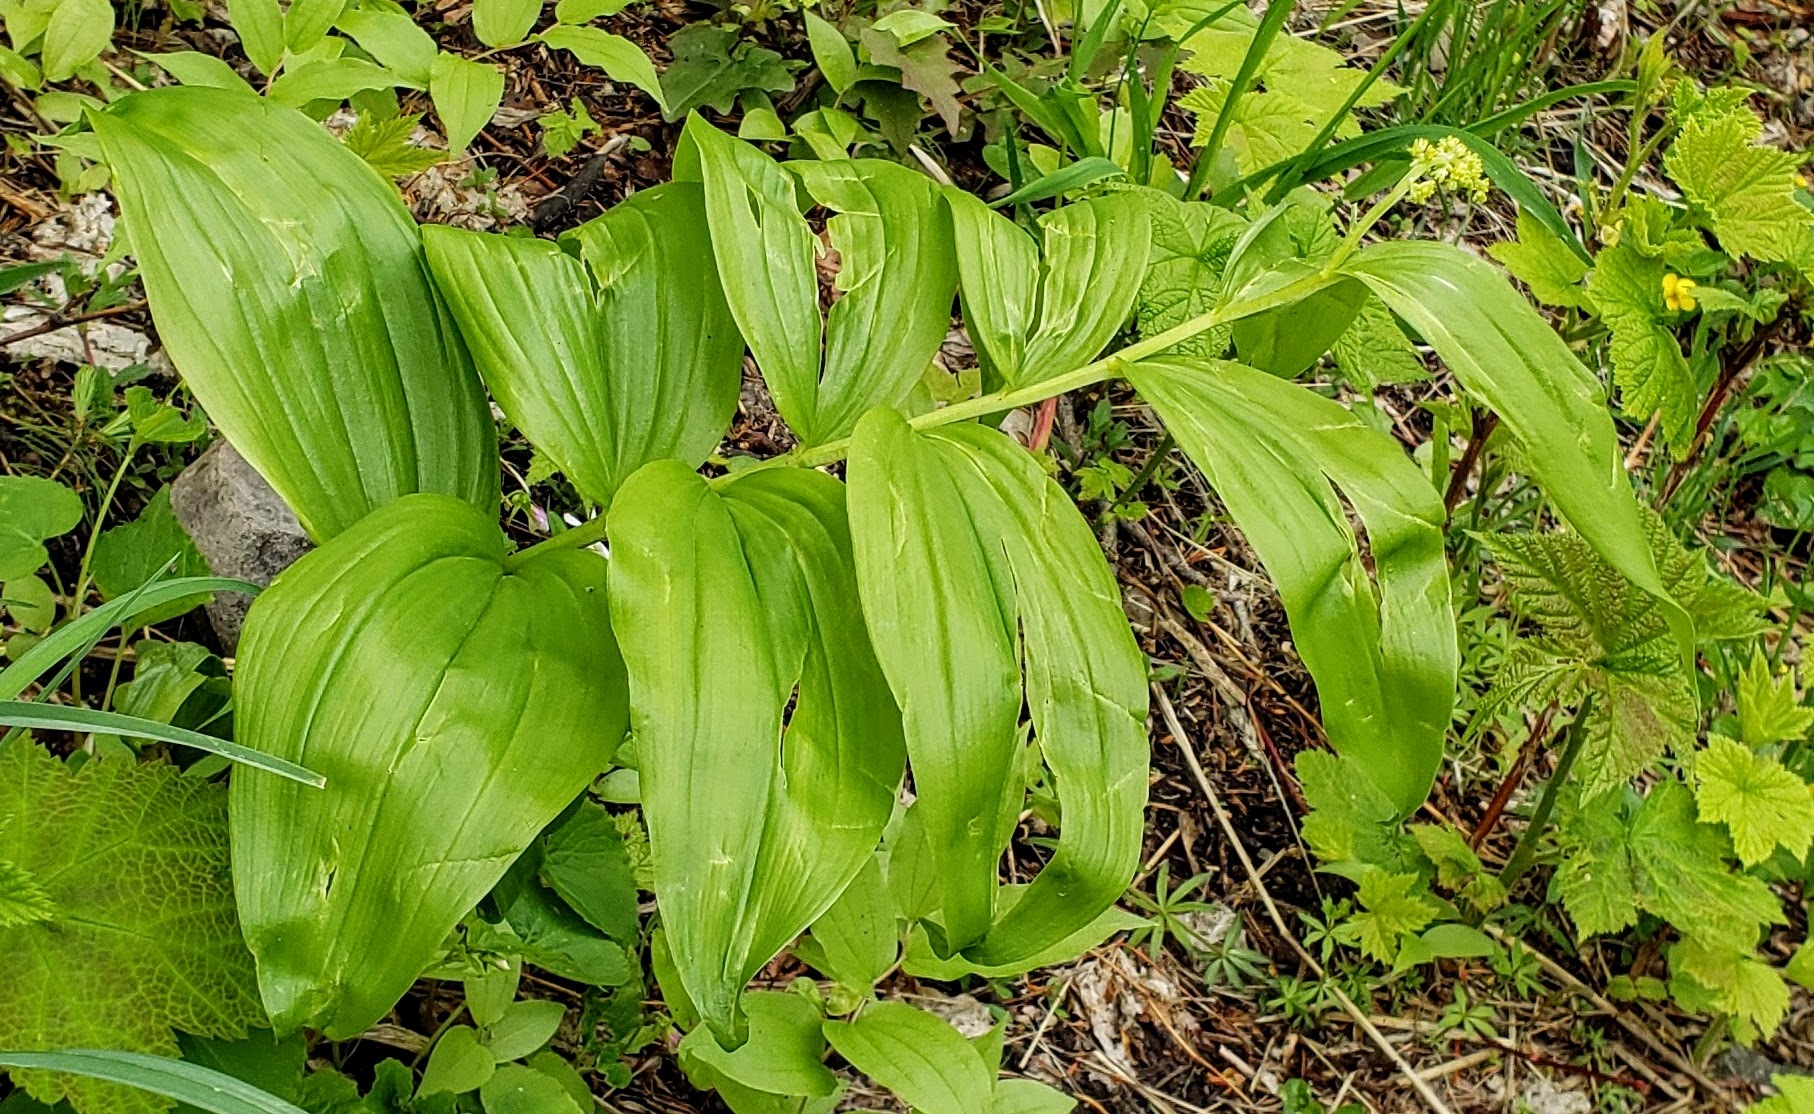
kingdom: Plantae
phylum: Tracheophyta
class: Liliopsida
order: Asparagales
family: Asparagaceae
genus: Maianthemum
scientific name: Maianthemum racemosum
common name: False spikenard
